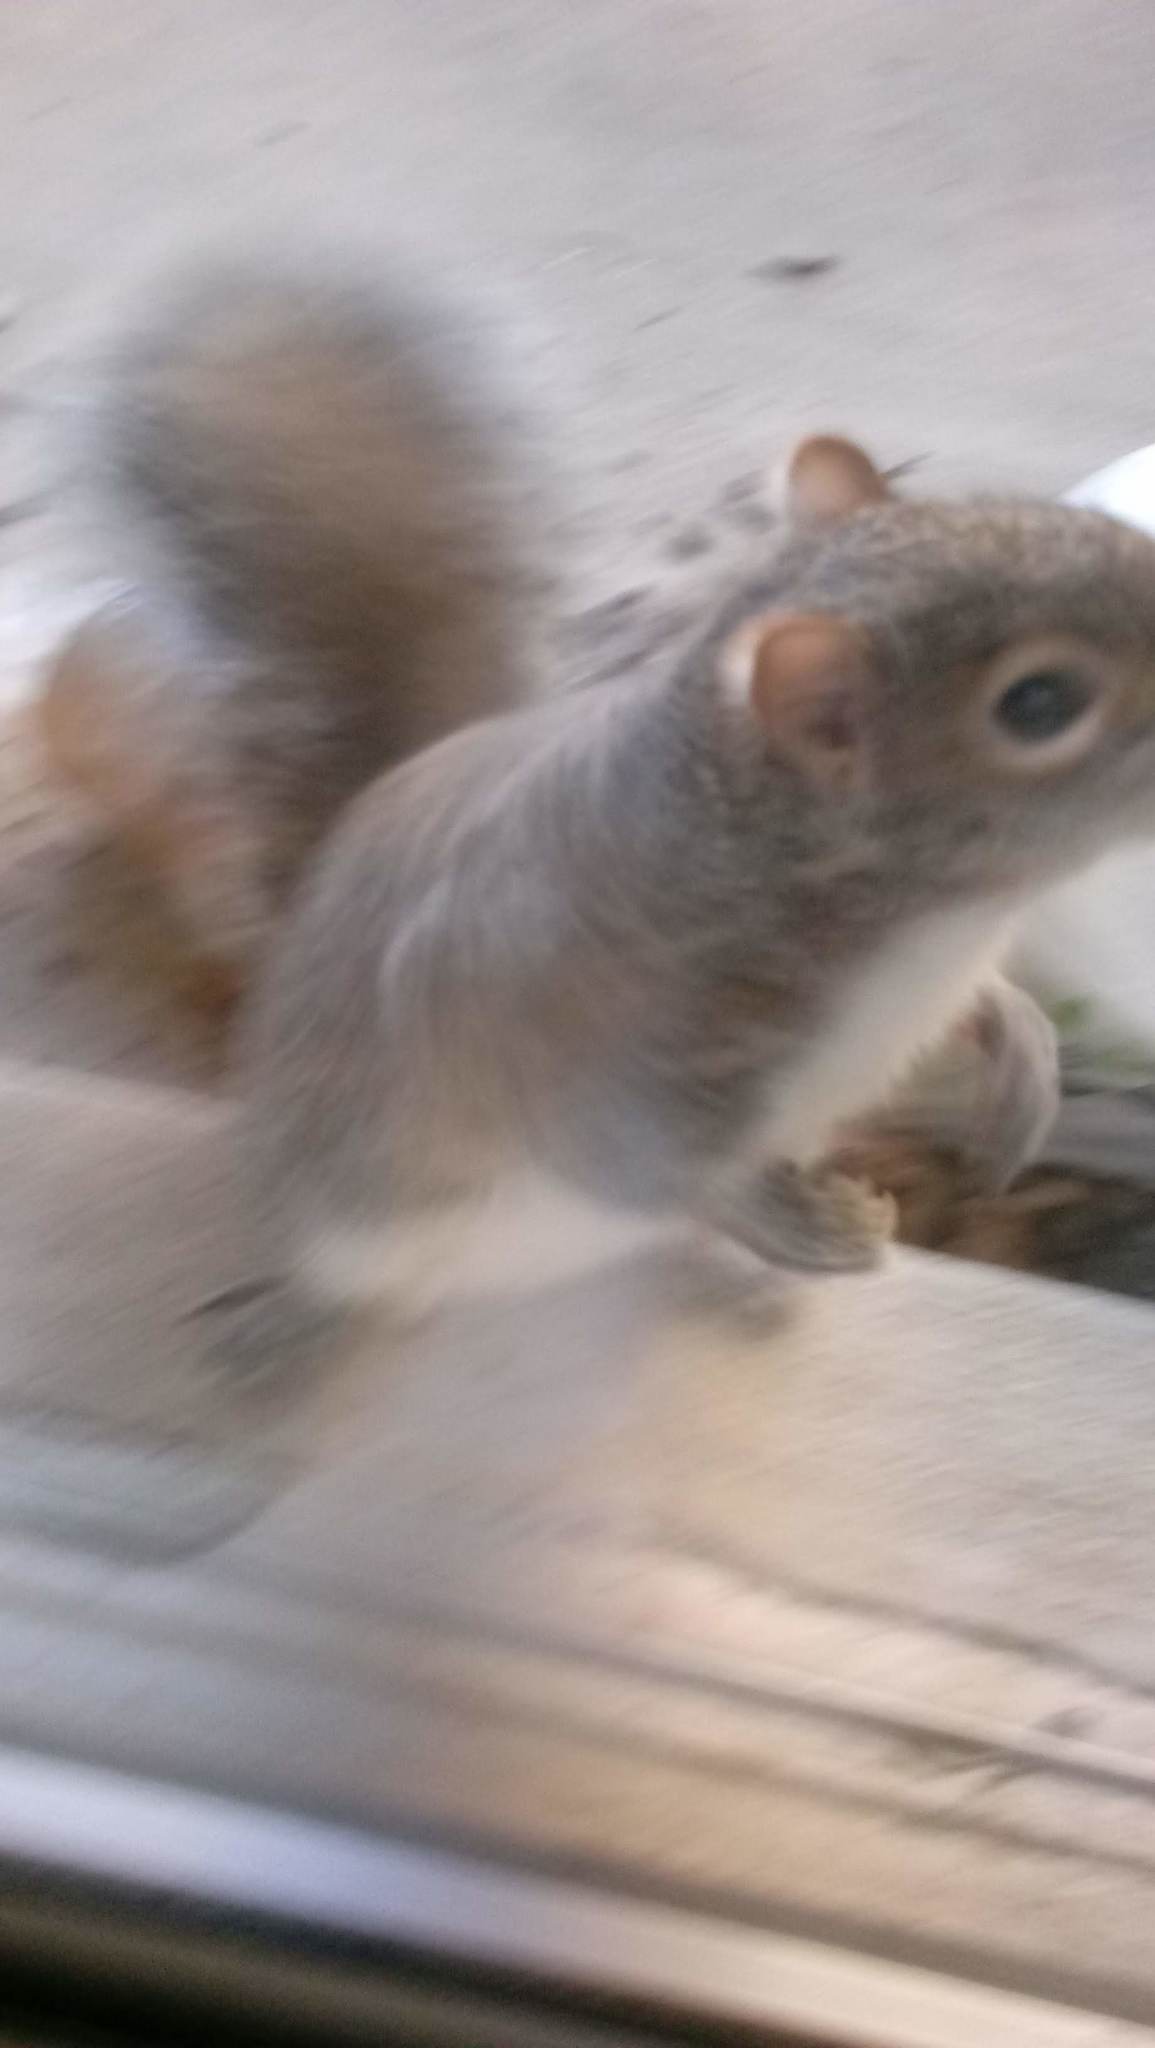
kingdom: Animalia
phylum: Chordata
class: Mammalia
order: Rodentia
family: Sciuridae
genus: Sciurus
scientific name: Sciurus carolinensis
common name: Eastern gray squirrel
